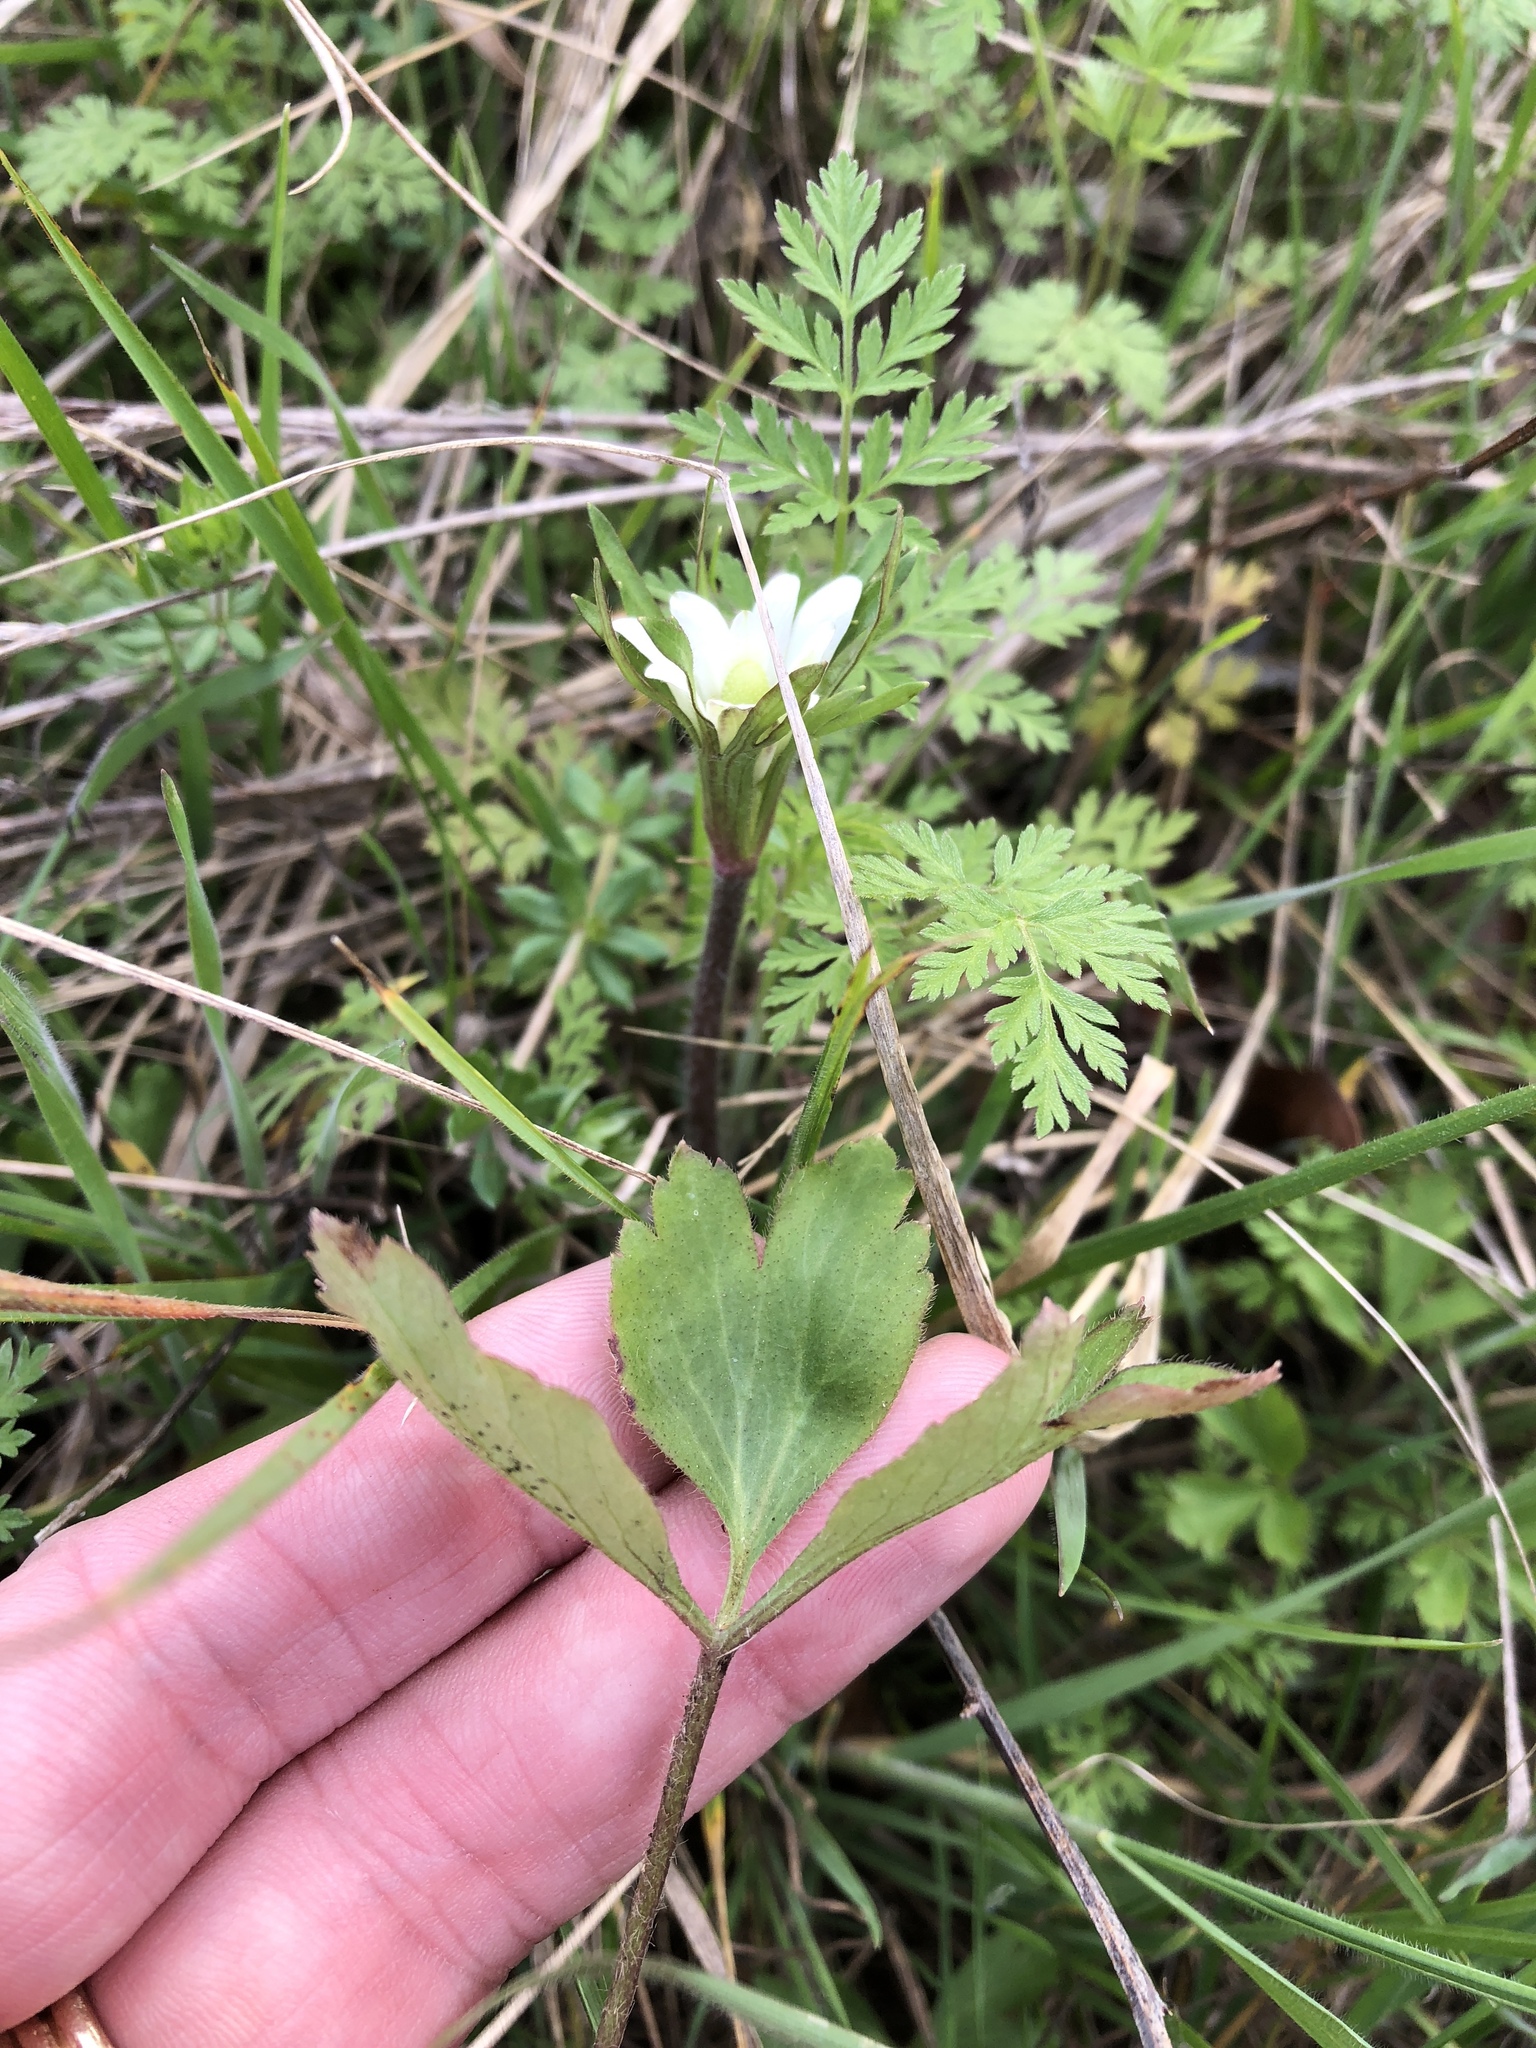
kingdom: Plantae
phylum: Tracheophyta
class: Magnoliopsida
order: Ranunculales
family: Ranunculaceae
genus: Anemone
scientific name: Anemone berlandieri
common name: Ten-petal anemone
